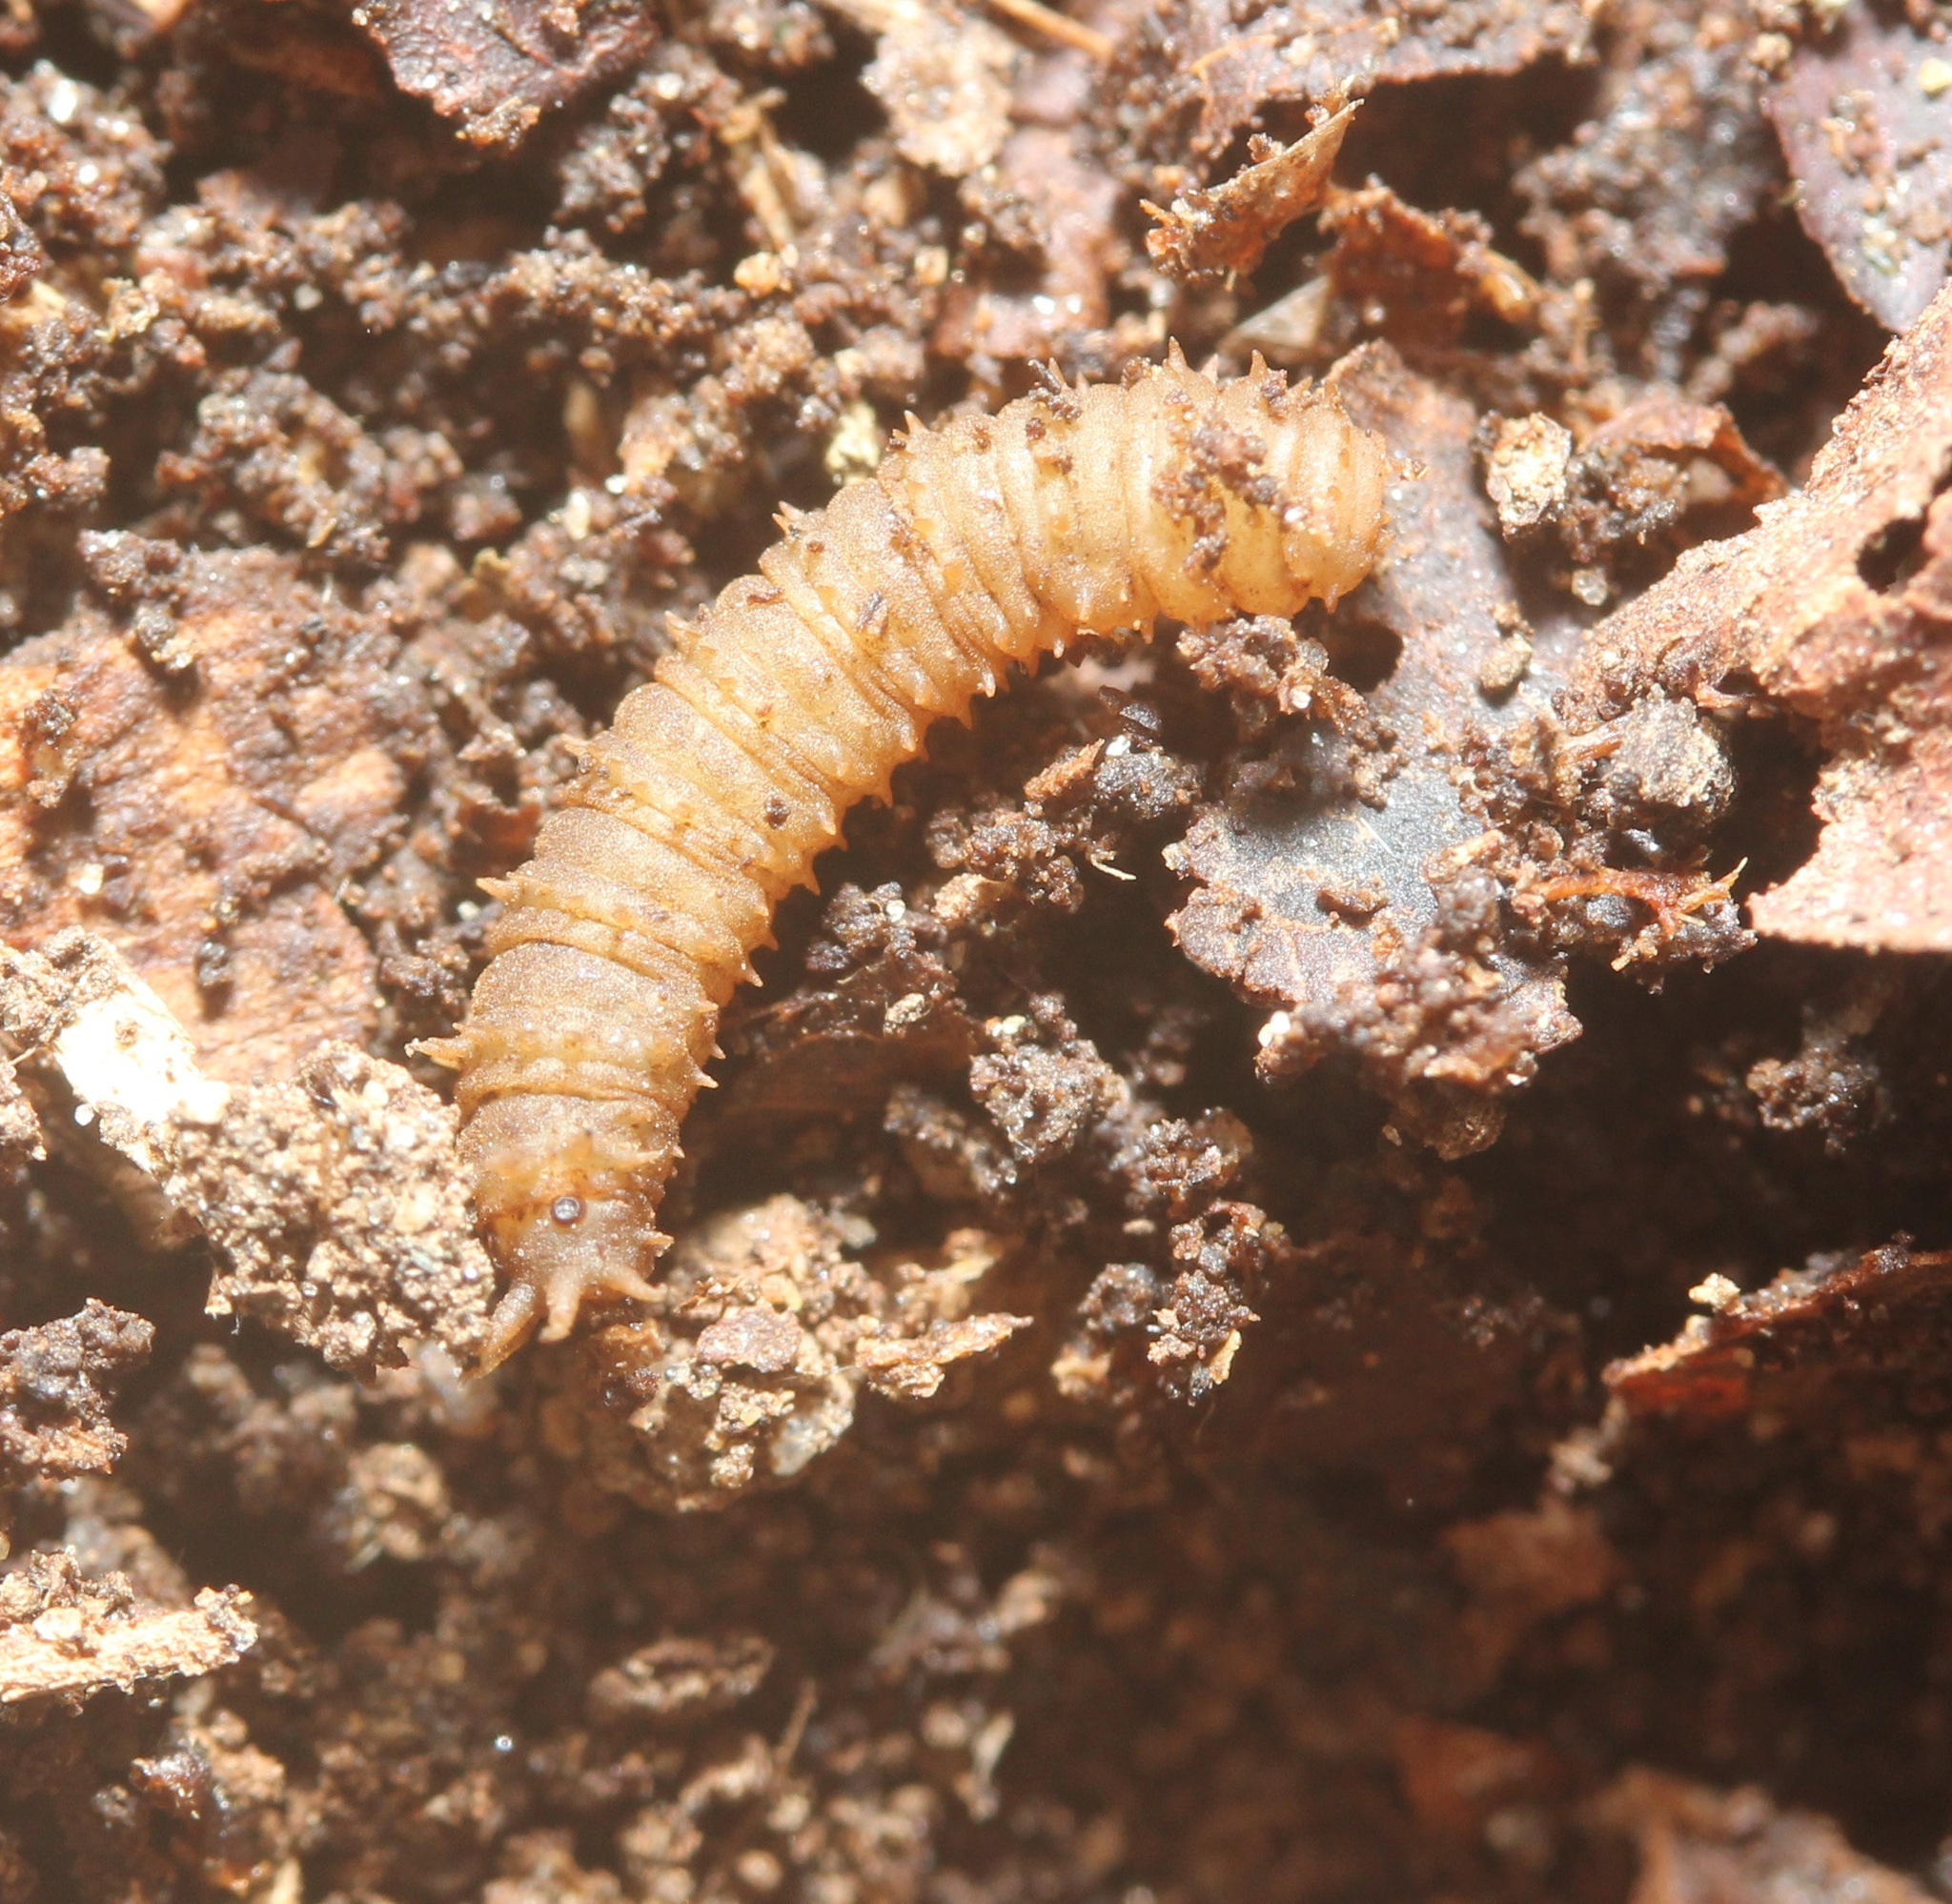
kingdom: Animalia
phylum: Arthropoda
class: Insecta
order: Diptera
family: Bibionidae
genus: Bibio
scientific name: Bibio
